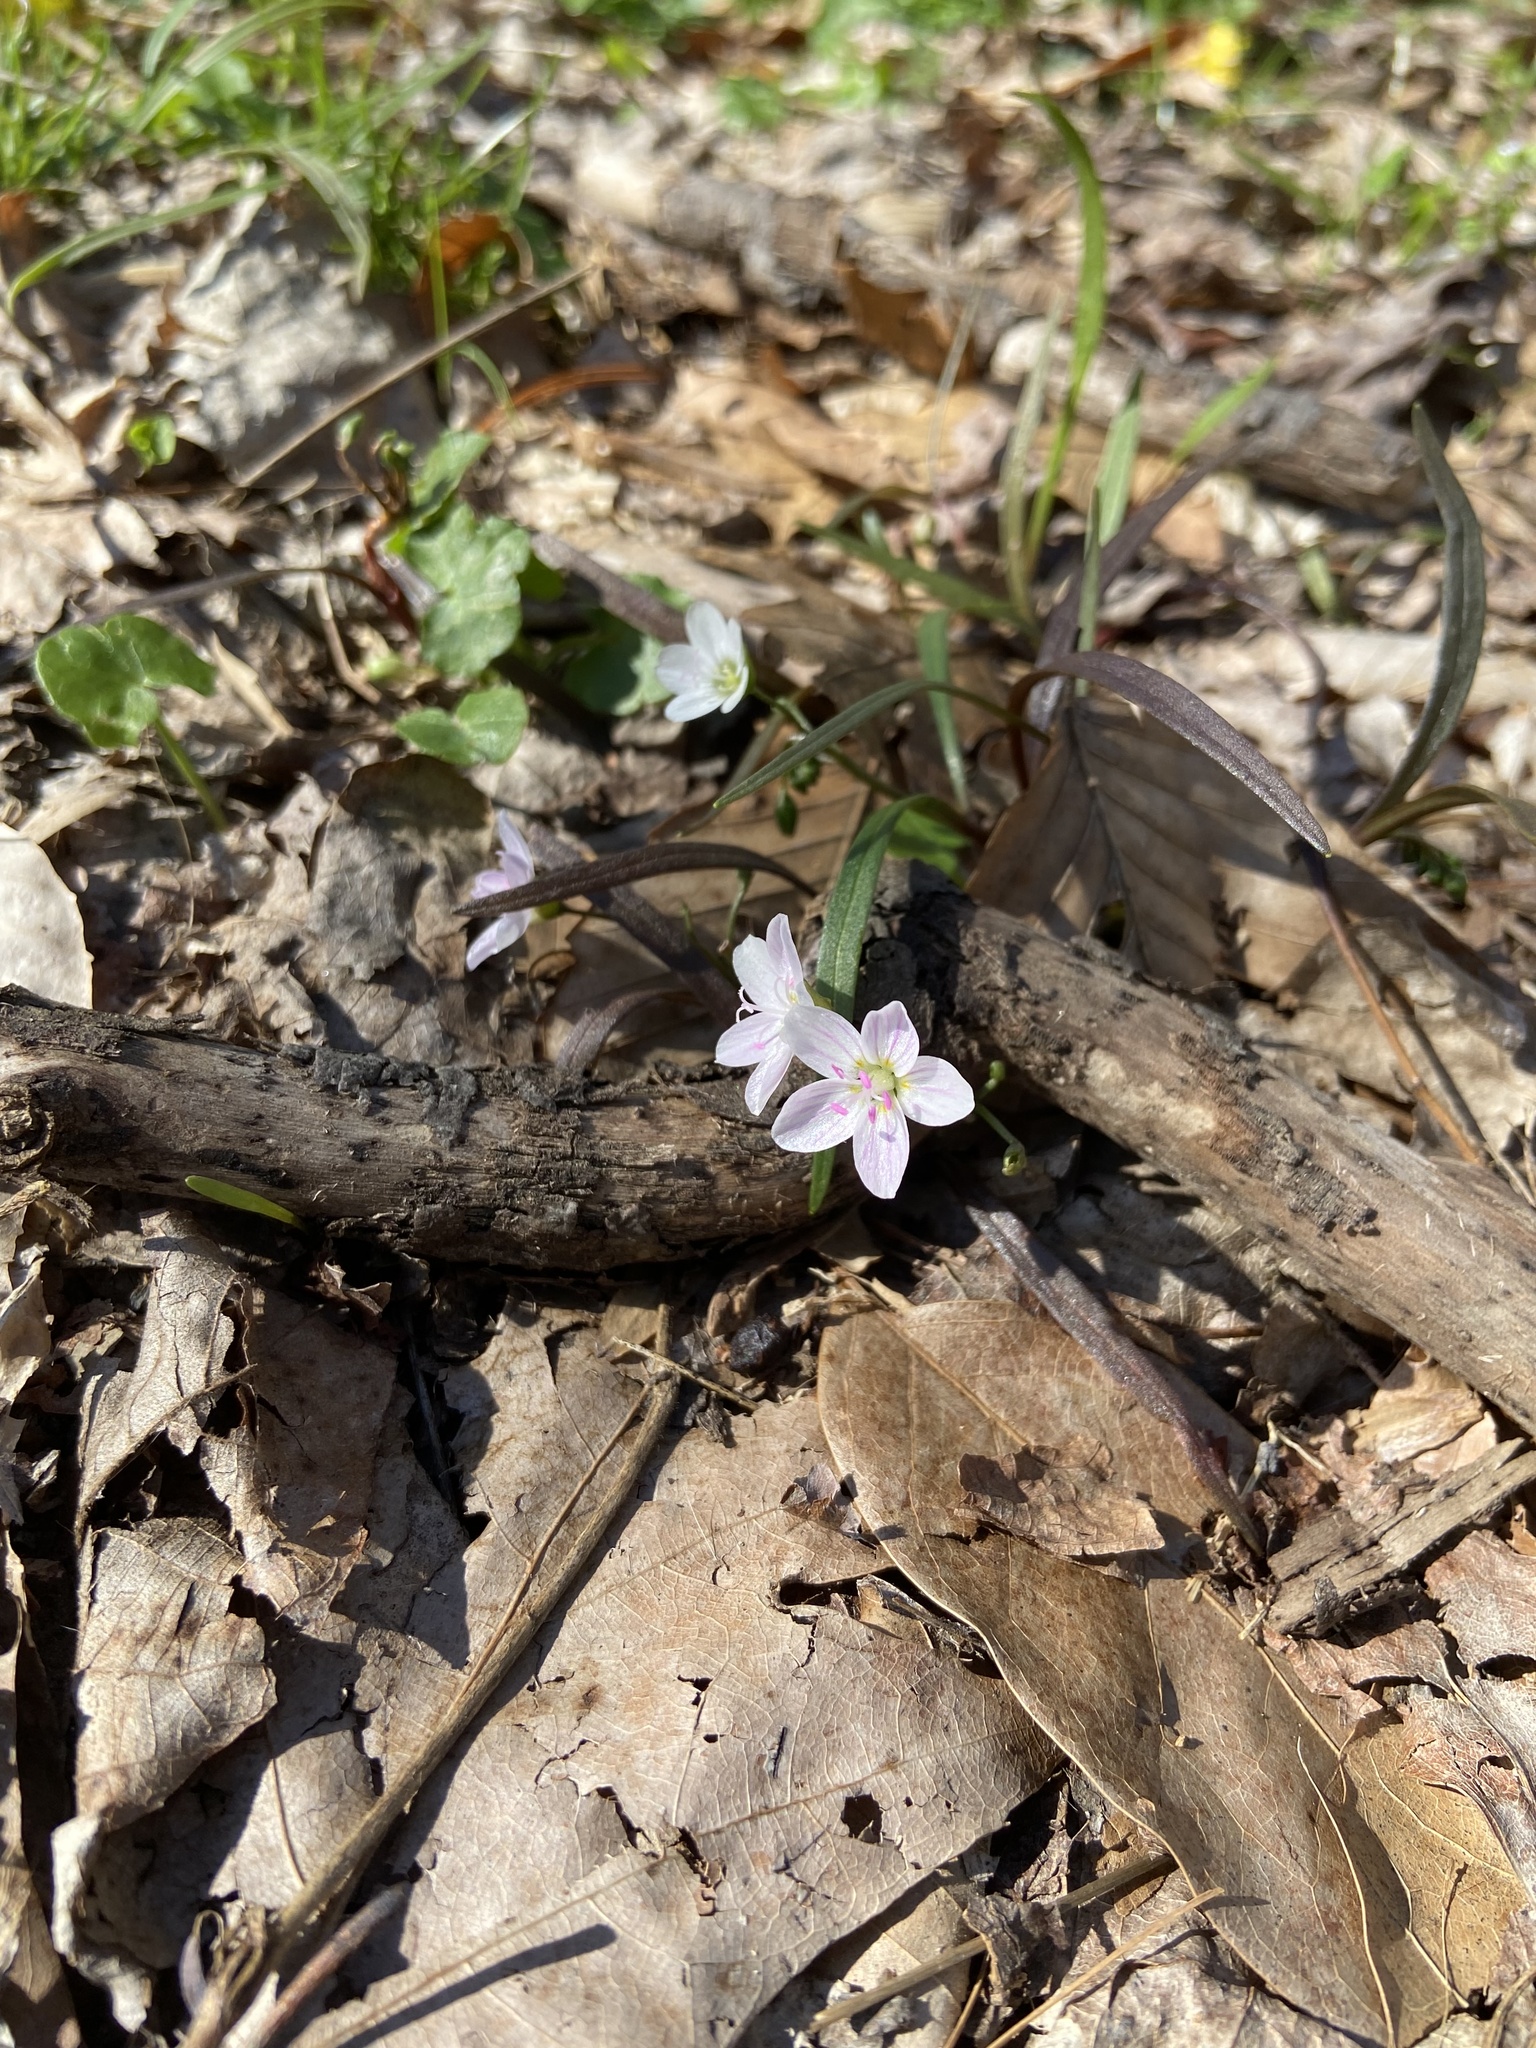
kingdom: Plantae
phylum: Tracheophyta
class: Magnoliopsida
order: Caryophyllales
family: Montiaceae
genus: Claytonia
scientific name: Claytonia virginica
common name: Virginia springbeauty
